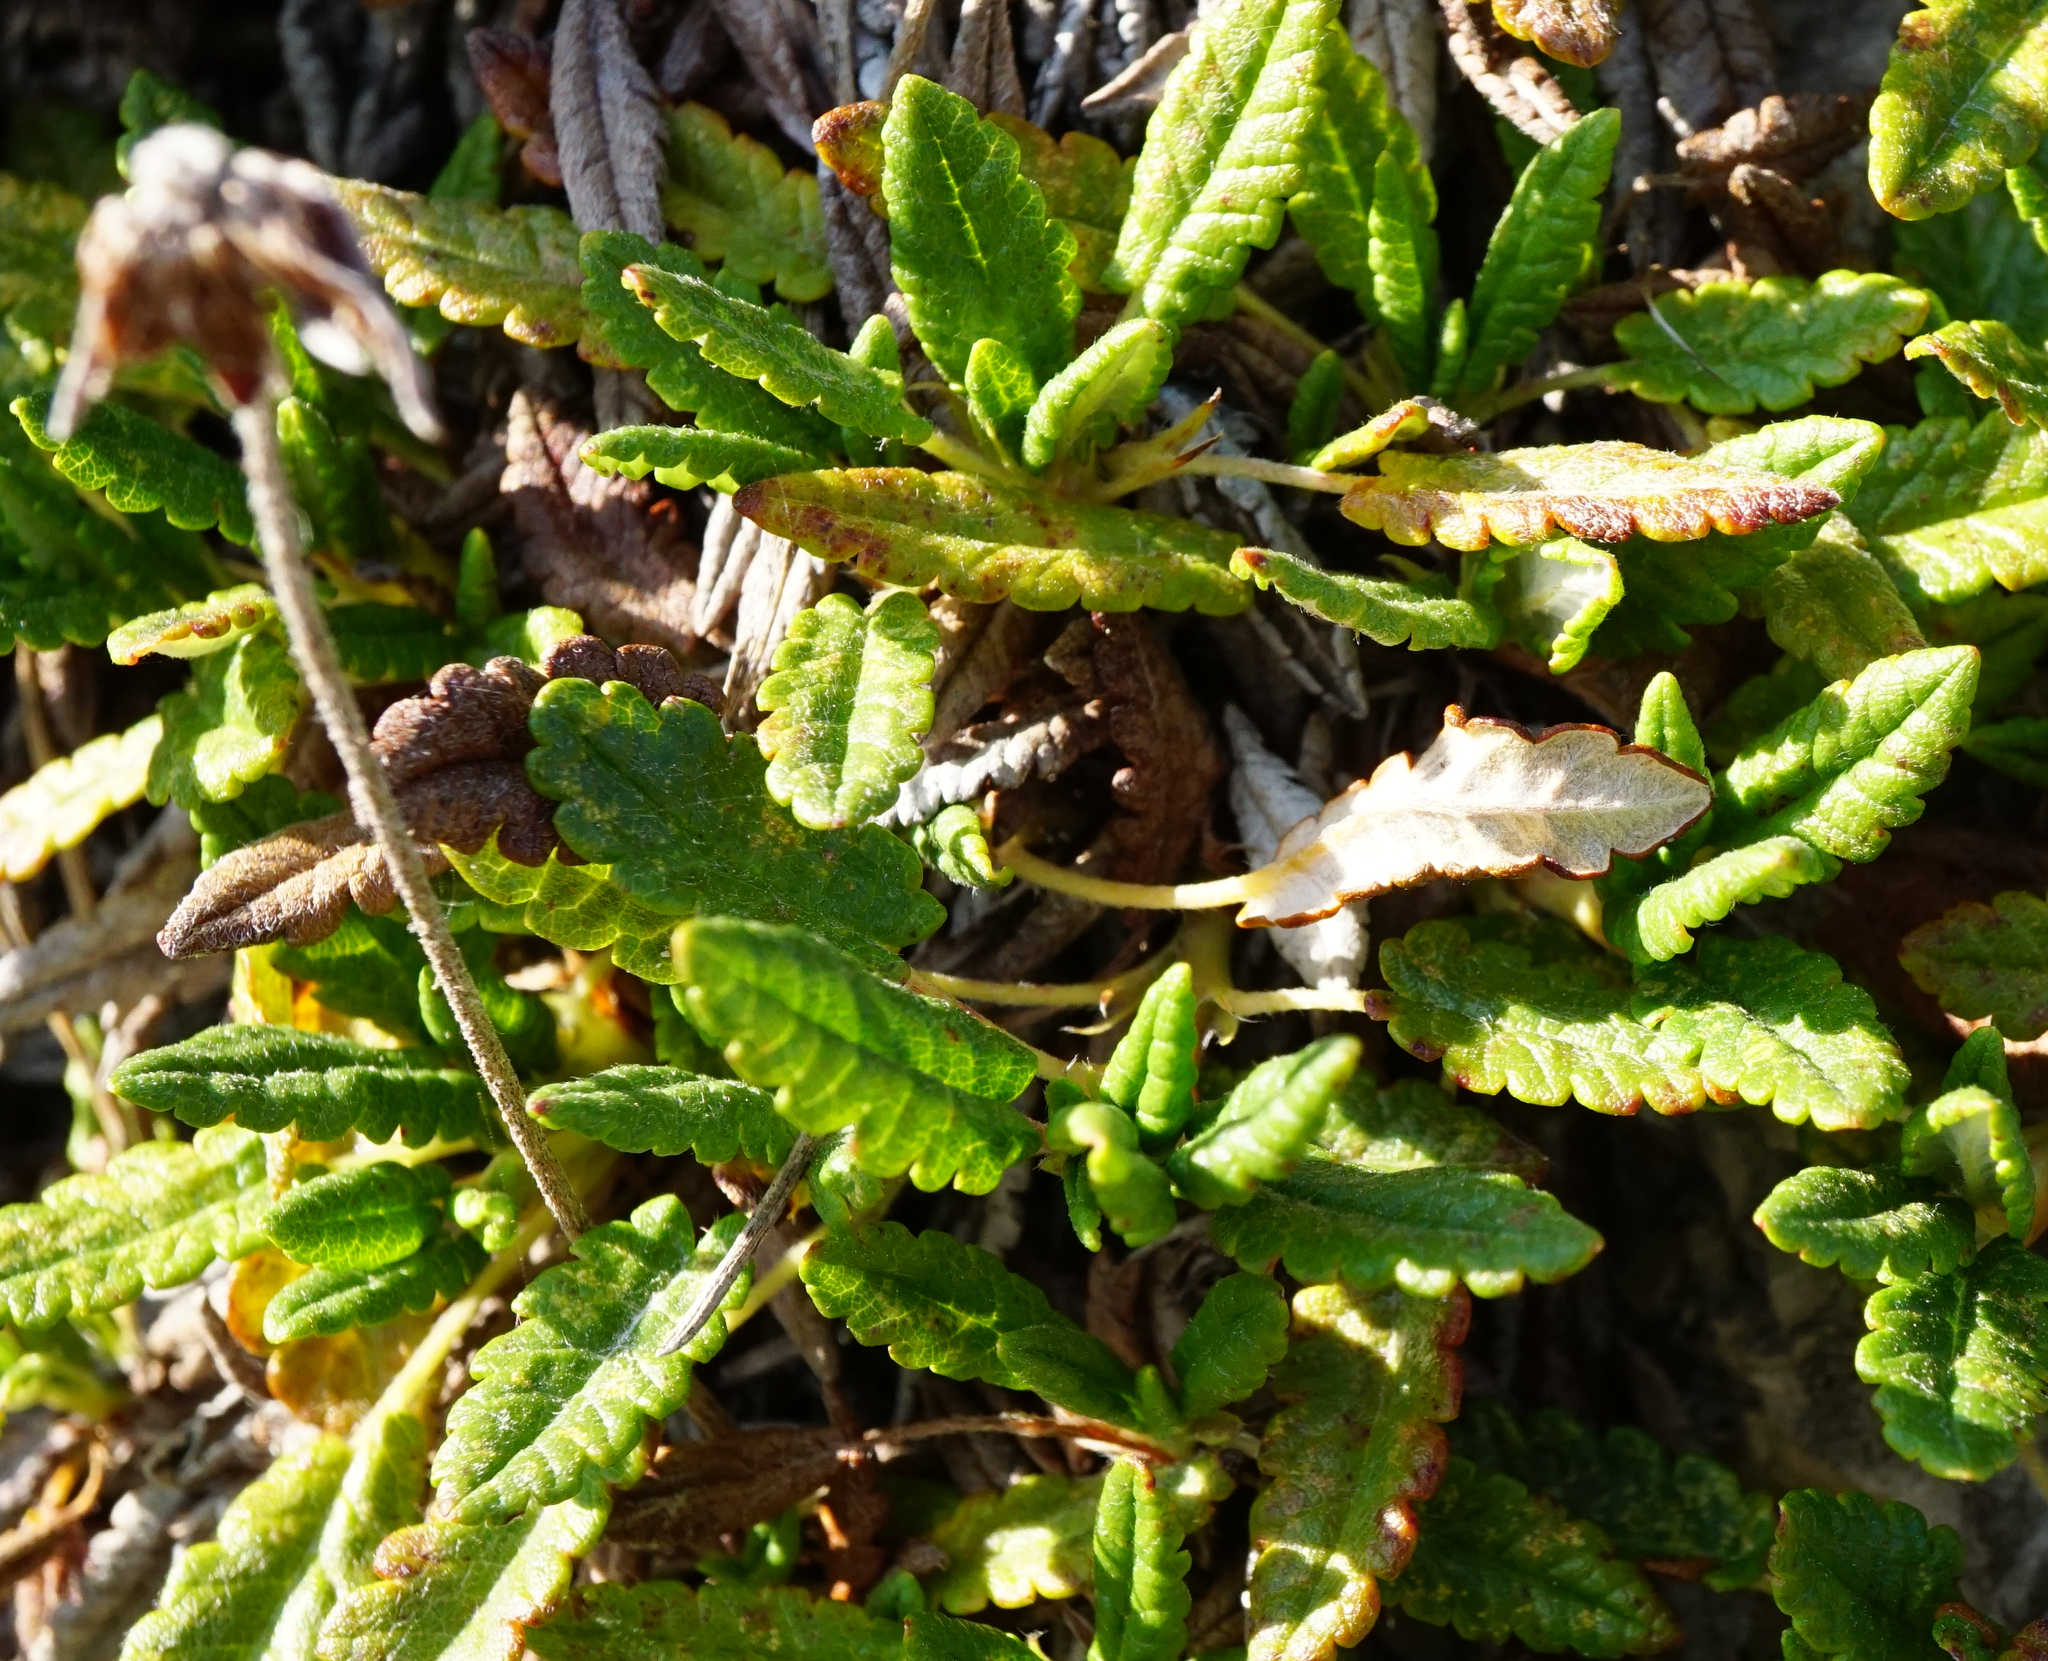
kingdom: Plantae
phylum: Tracheophyta
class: Magnoliopsida
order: Rosales
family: Rosaceae
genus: Dryas
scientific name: Dryas octopetala
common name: Eight-petal mountain-avens
